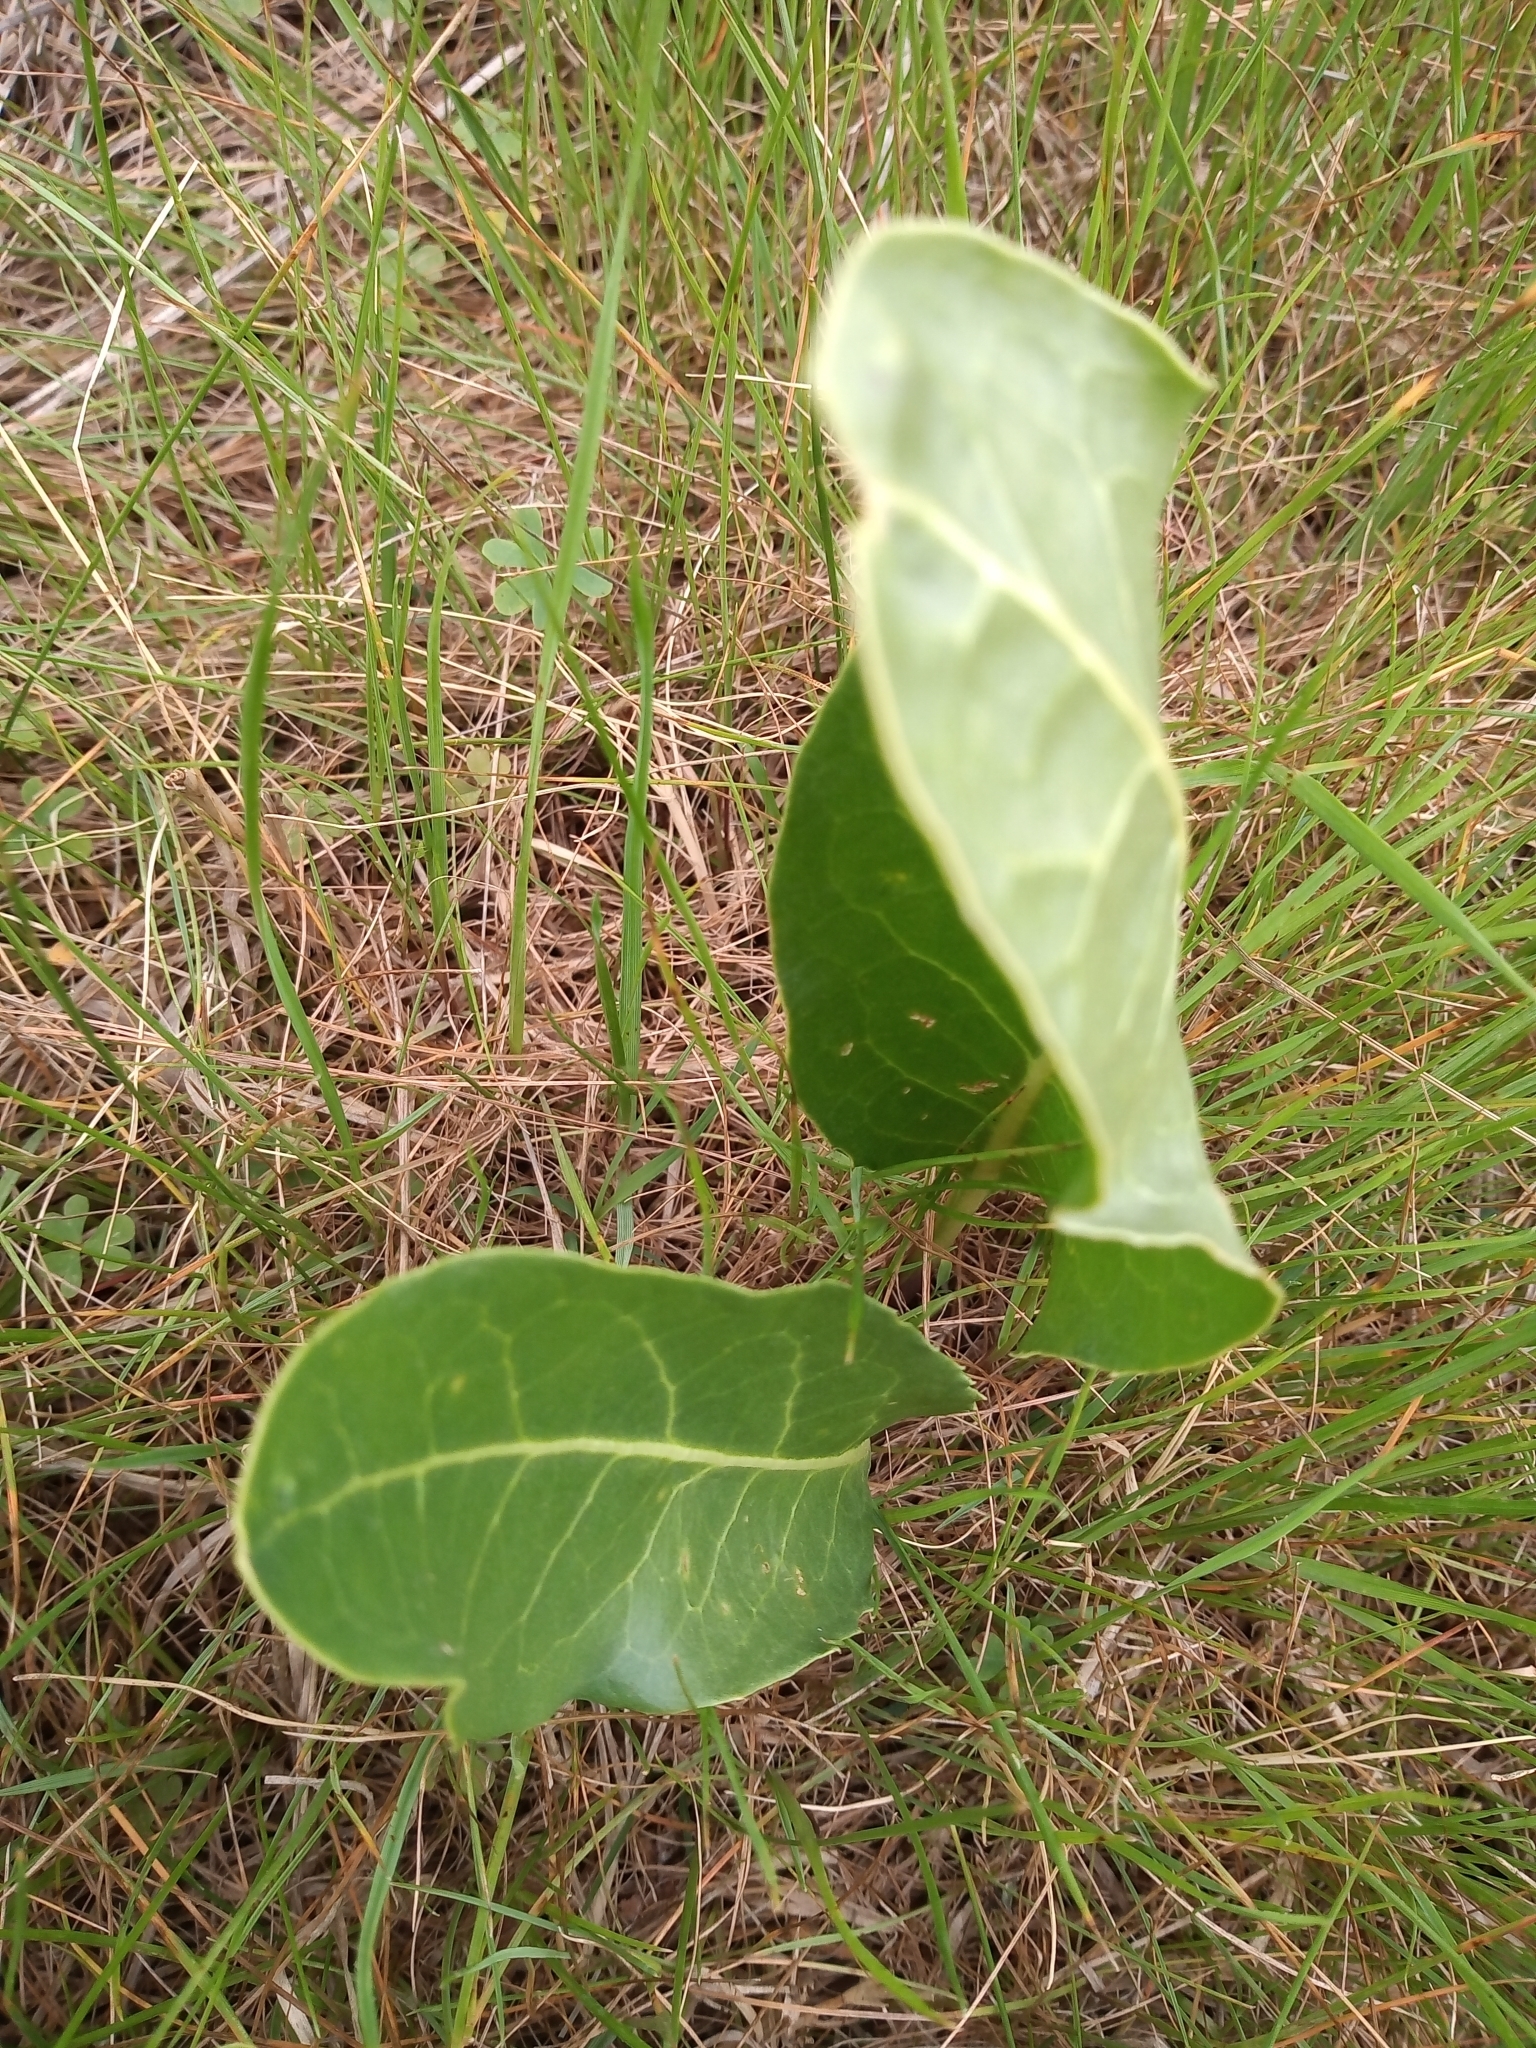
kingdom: Plantae
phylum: Tracheophyta
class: Magnoliopsida
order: Solanales
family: Solanaceae
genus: Jaborosa
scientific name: Jaborosa integrifolia
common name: Springblossom
